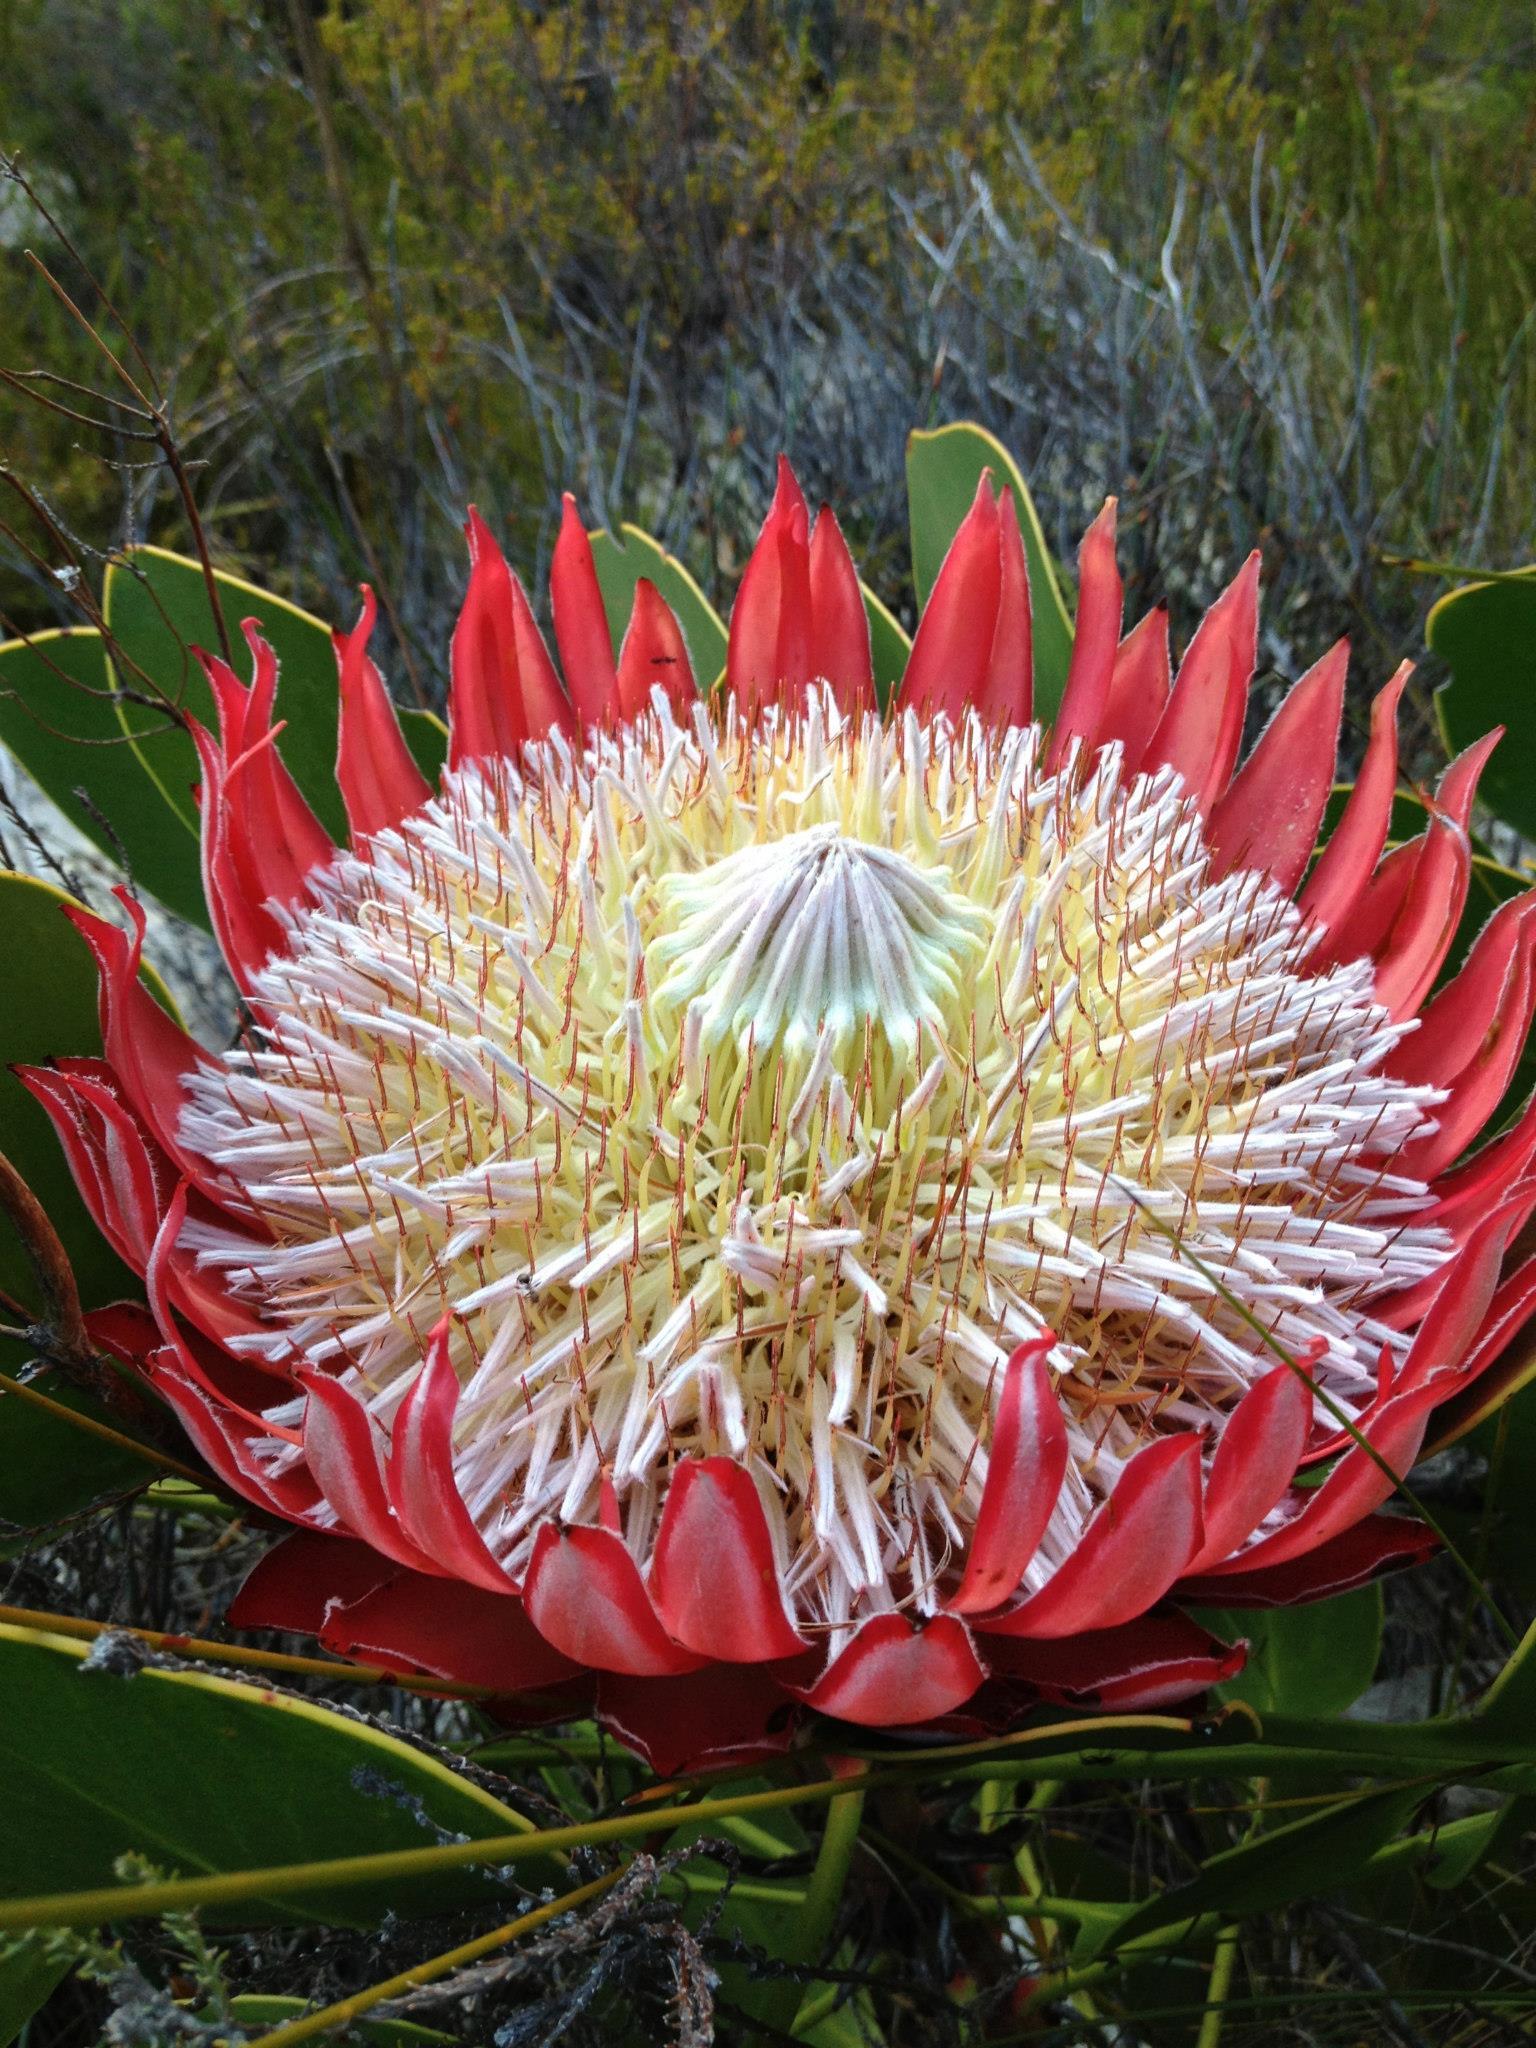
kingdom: Plantae
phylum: Tracheophyta
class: Magnoliopsida
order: Proteales
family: Proteaceae
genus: Protea
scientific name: Protea cynaroides
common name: King protea
